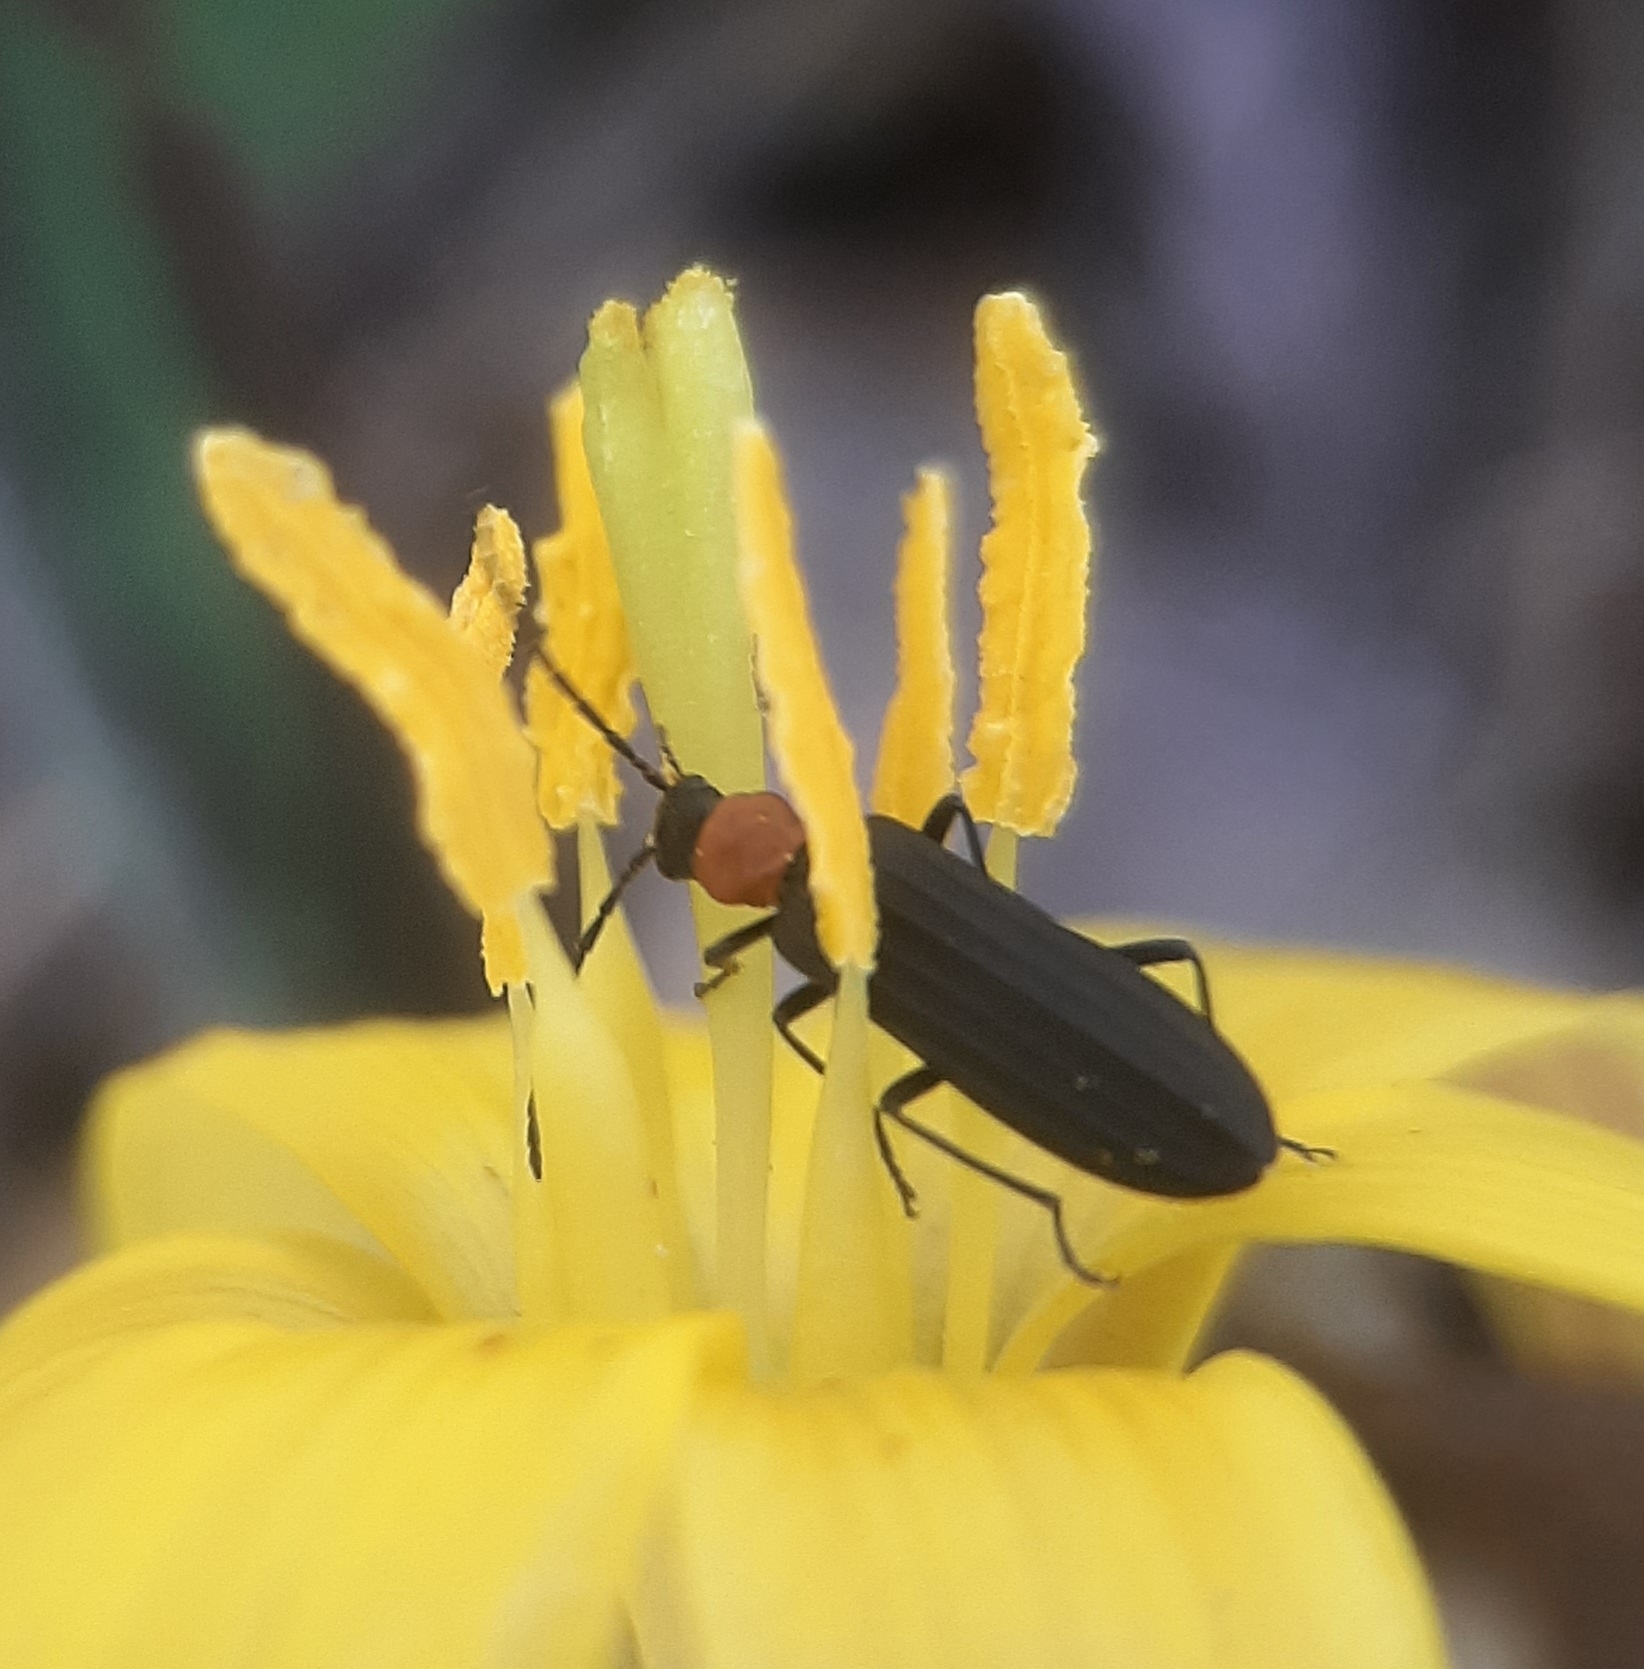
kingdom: Animalia
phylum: Arthropoda
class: Insecta
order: Coleoptera
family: Oedemeridae
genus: Ischnomera
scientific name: Ischnomera
